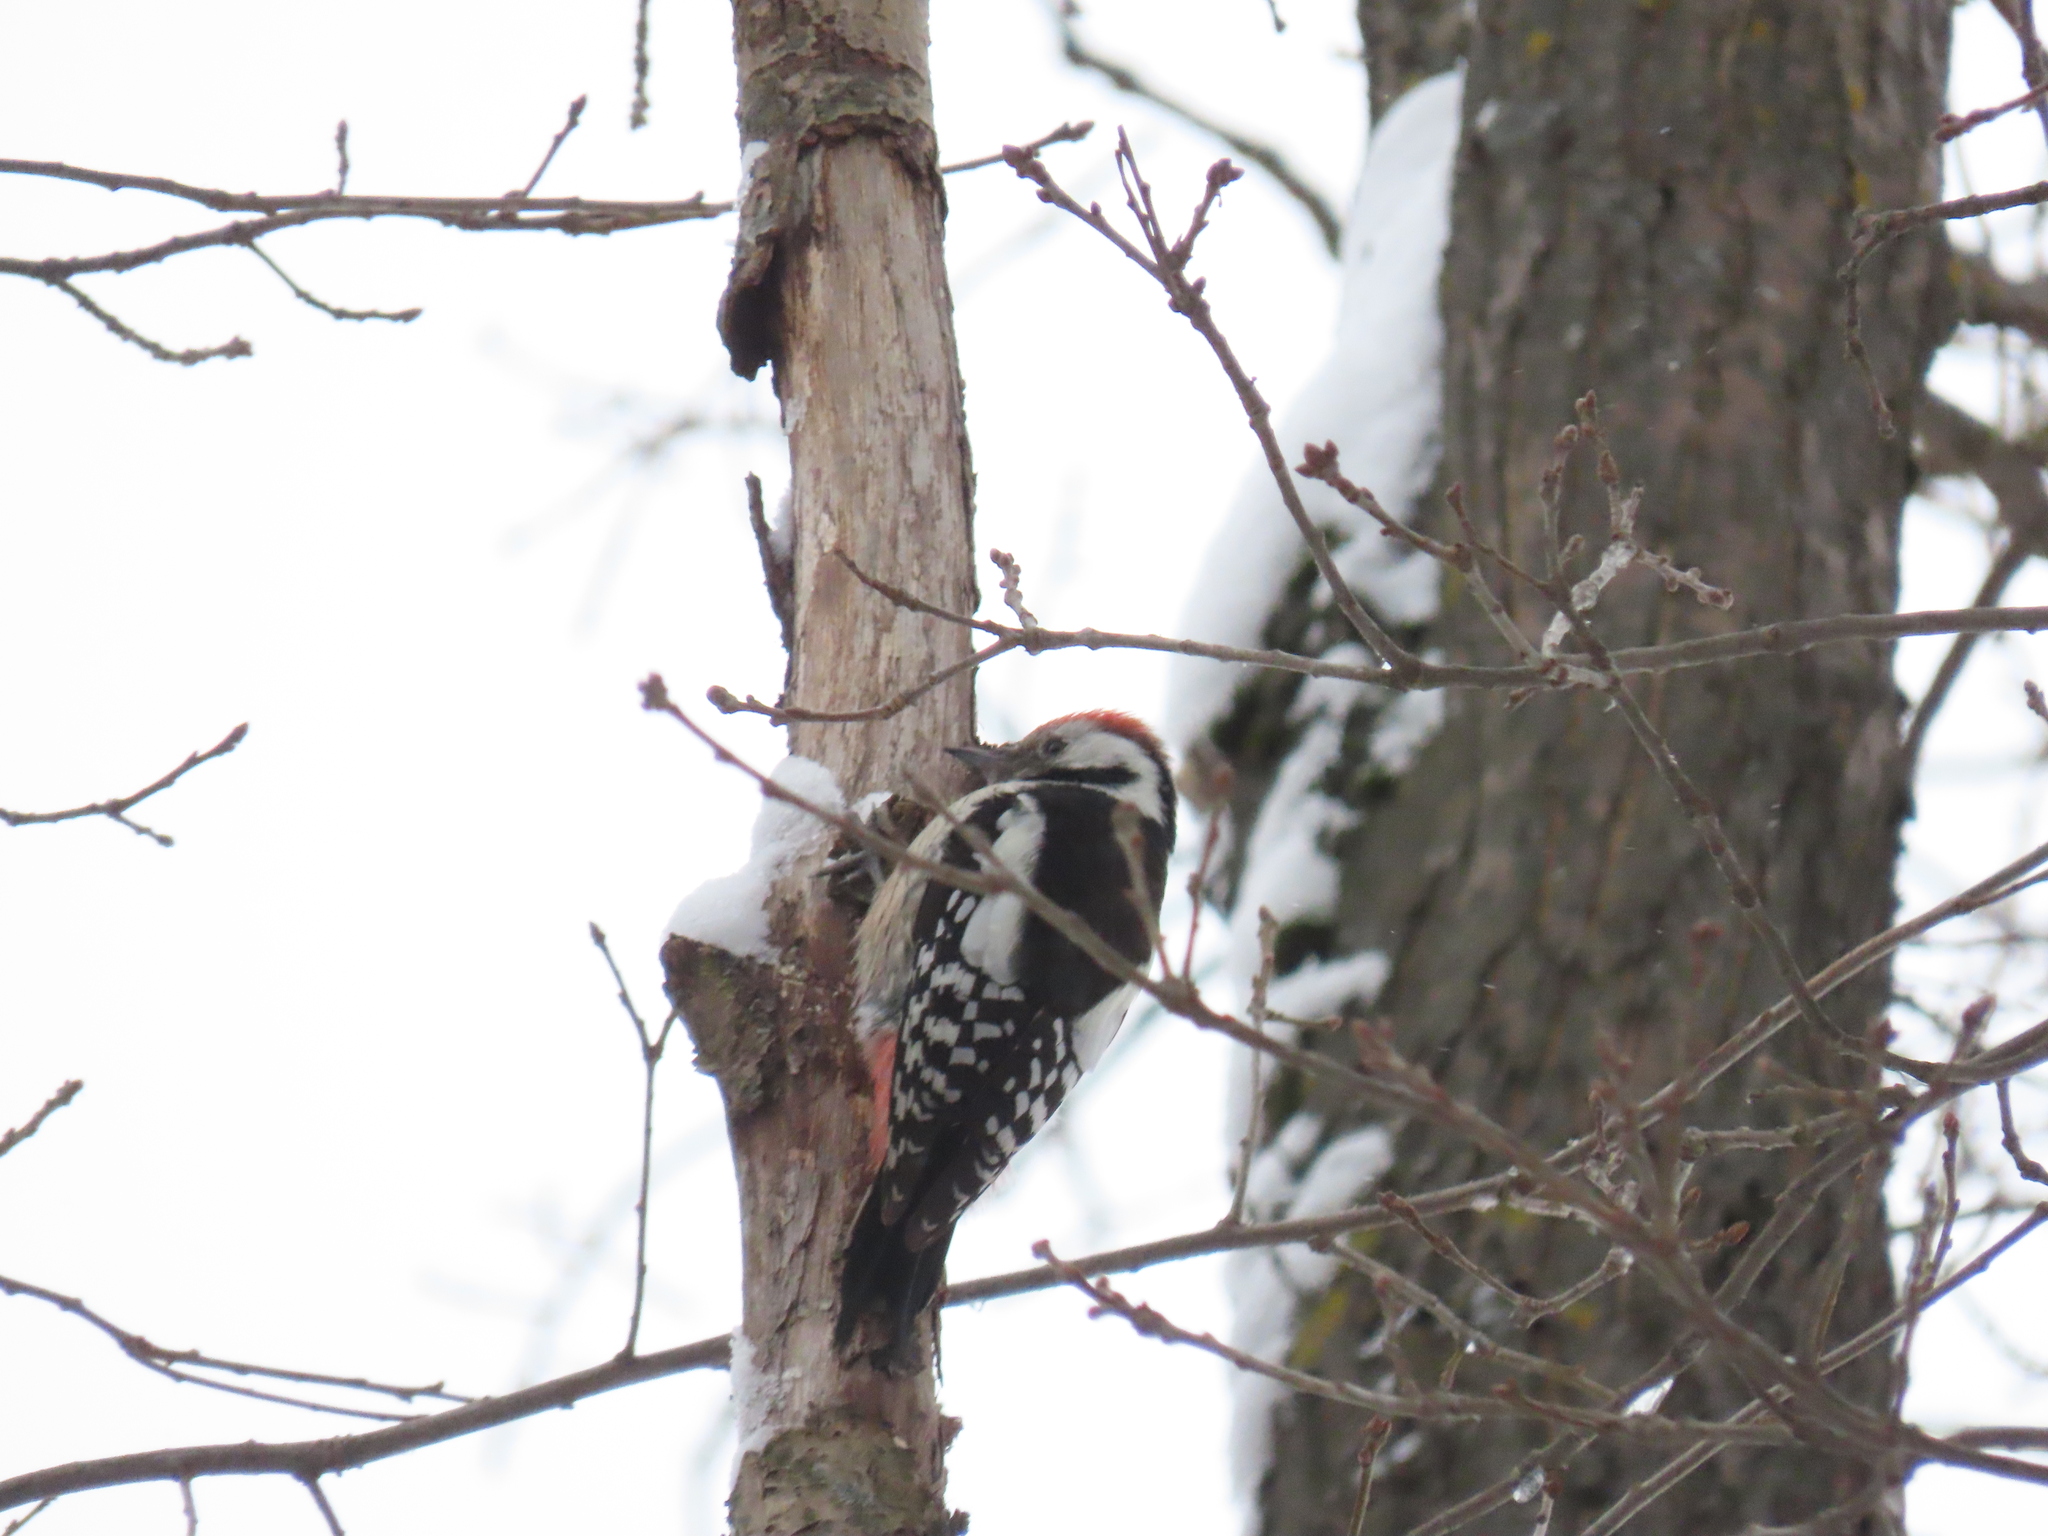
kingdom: Animalia
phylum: Chordata
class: Aves
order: Piciformes
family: Picidae
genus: Dendrocoptes
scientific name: Dendrocoptes medius
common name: Middle spotted woodpecker
